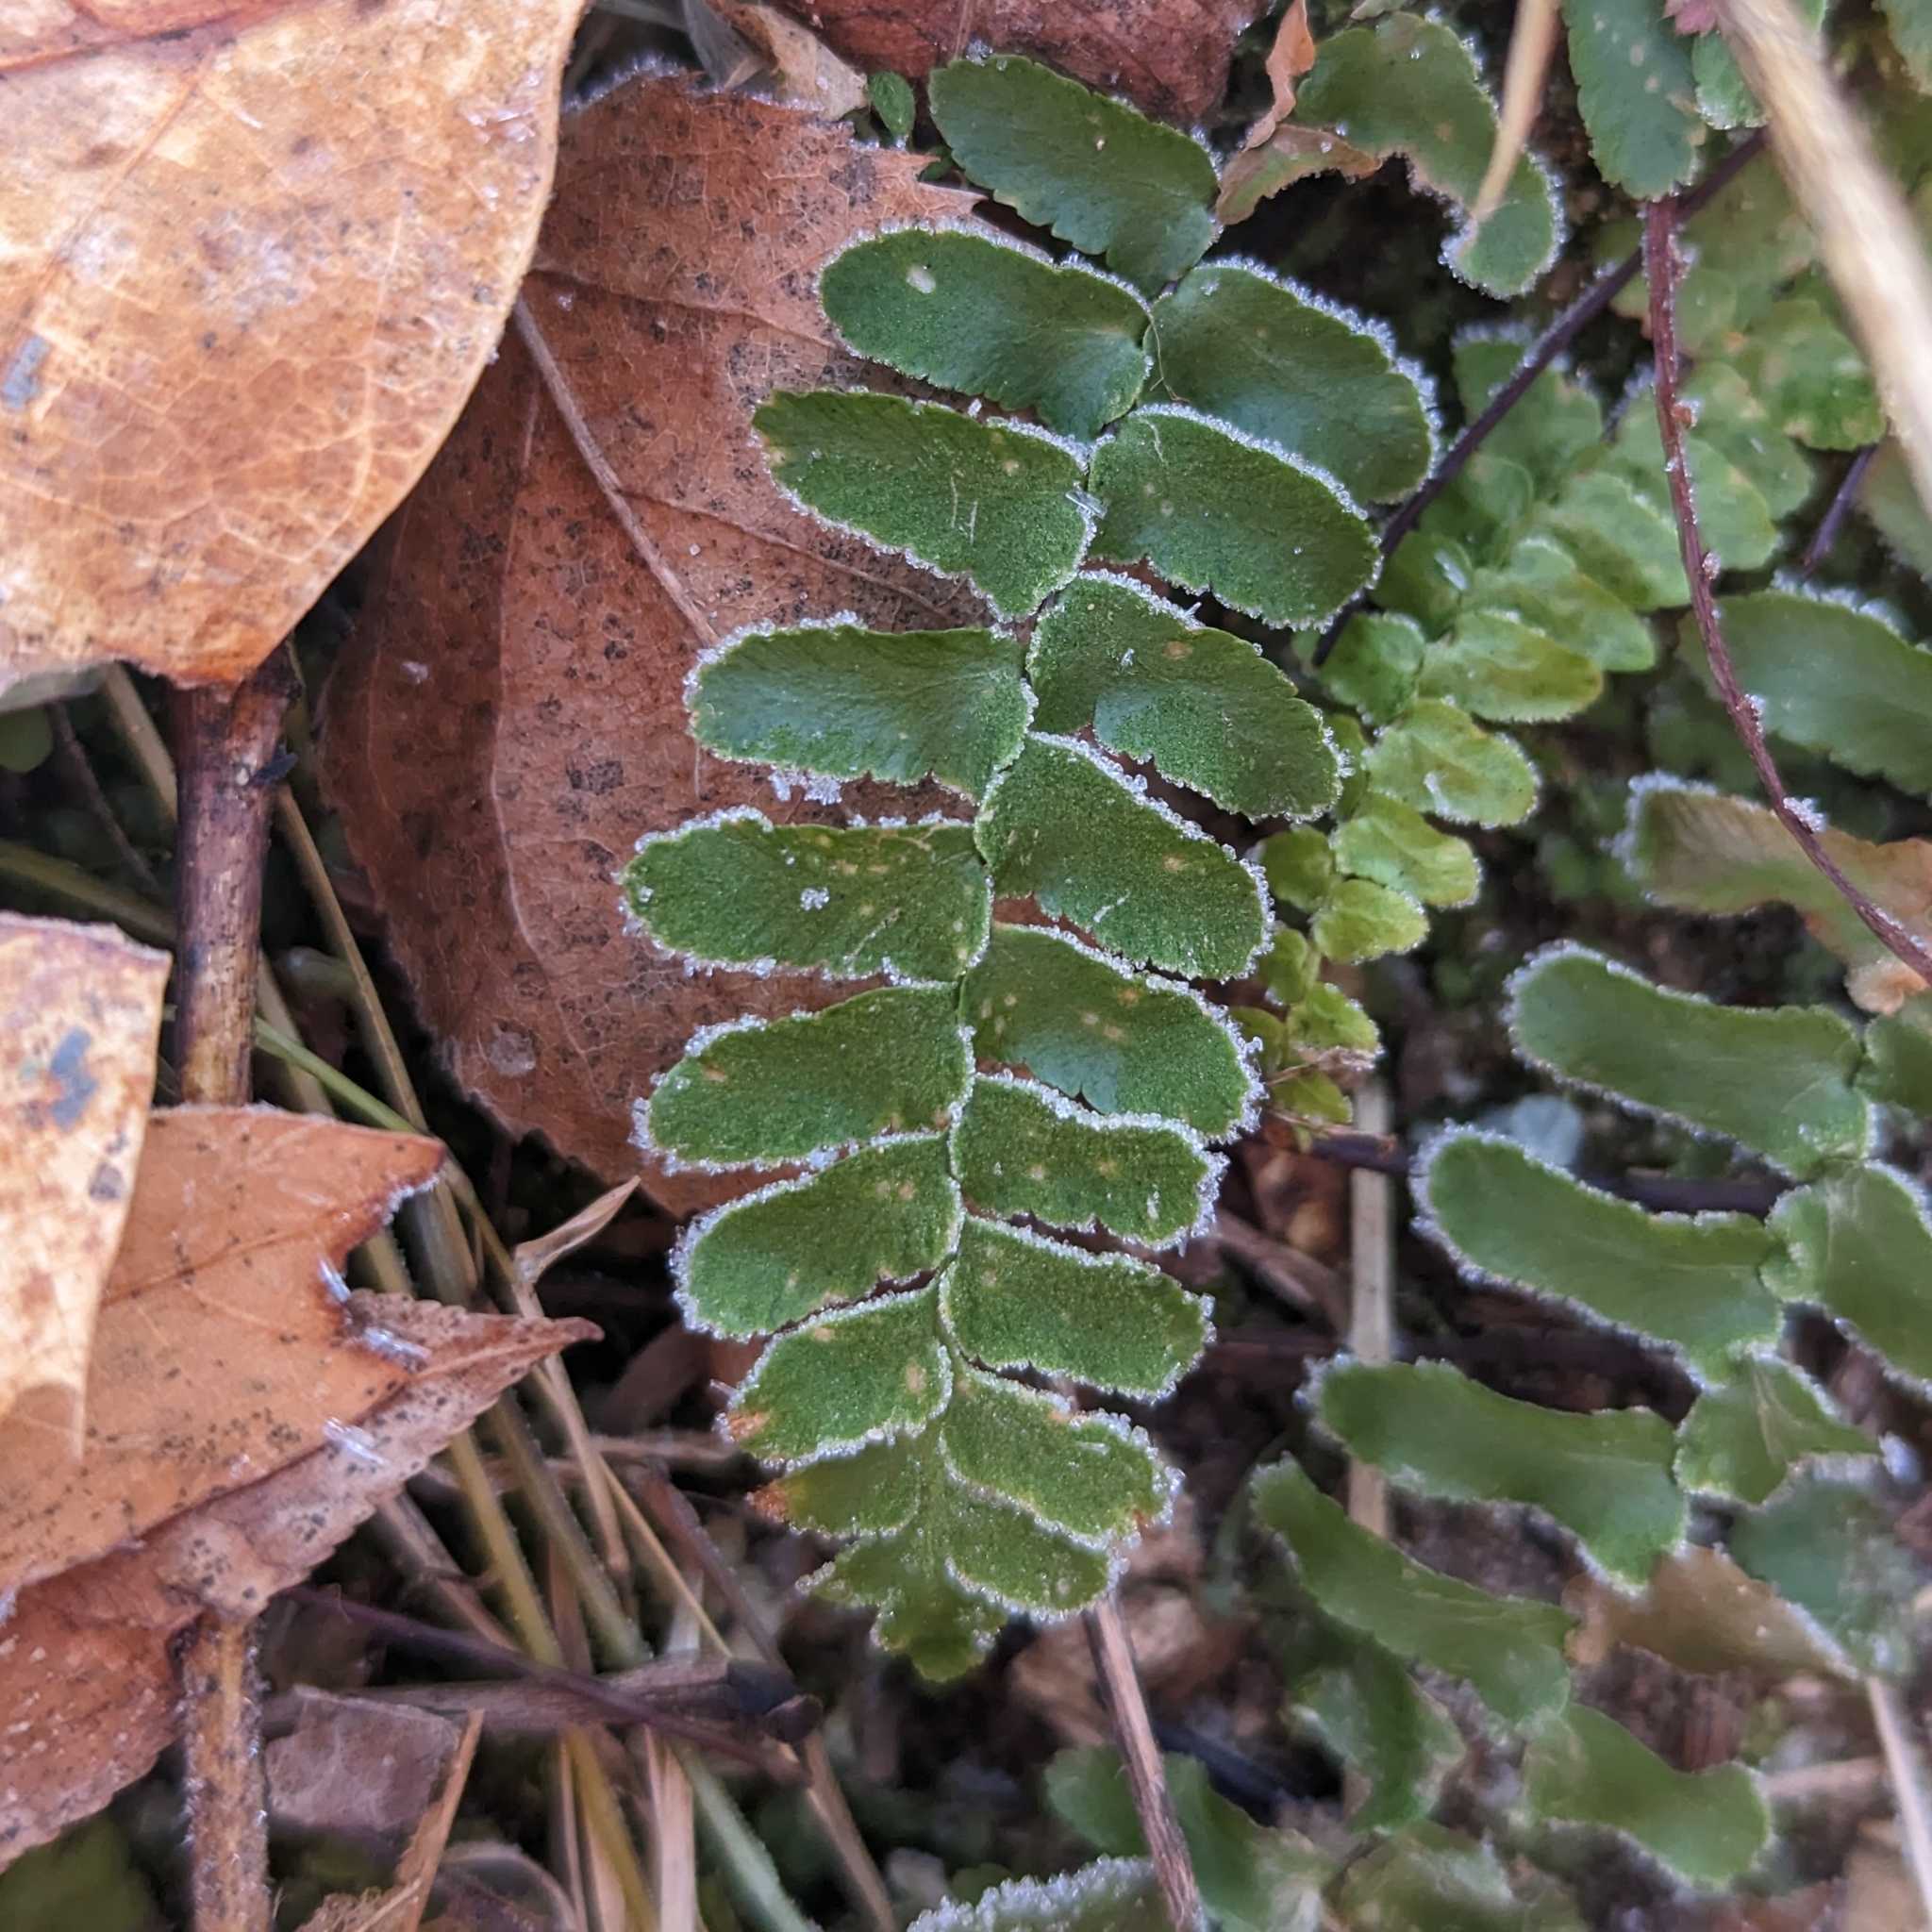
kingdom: Plantae
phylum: Tracheophyta
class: Polypodiopsida
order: Polypodiales
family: Aspleniaceae
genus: Asplenium
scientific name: Asplenium platyneuron
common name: Ebony spleenwort
